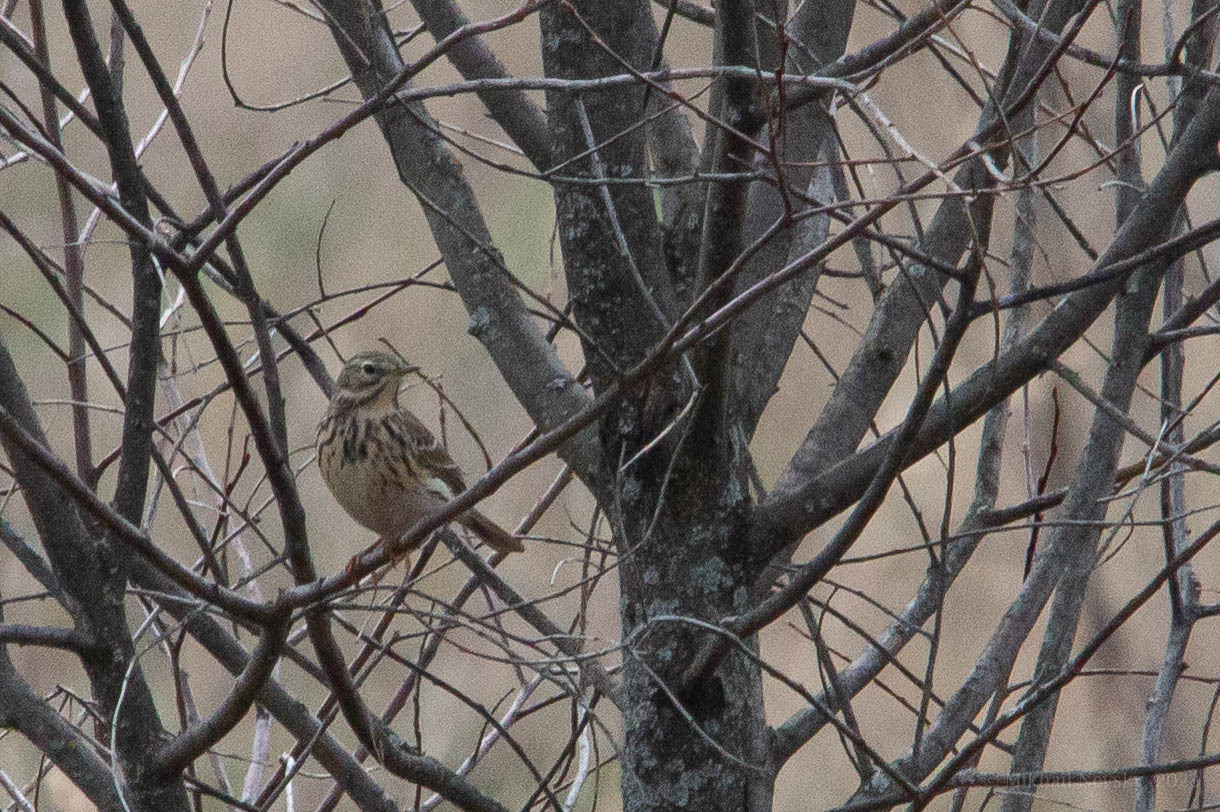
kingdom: Animalia
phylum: Chordata
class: Aves
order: Passeriformes
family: Motacillidae
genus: Anthus
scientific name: Anthus pratensis
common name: Meadow pipit
